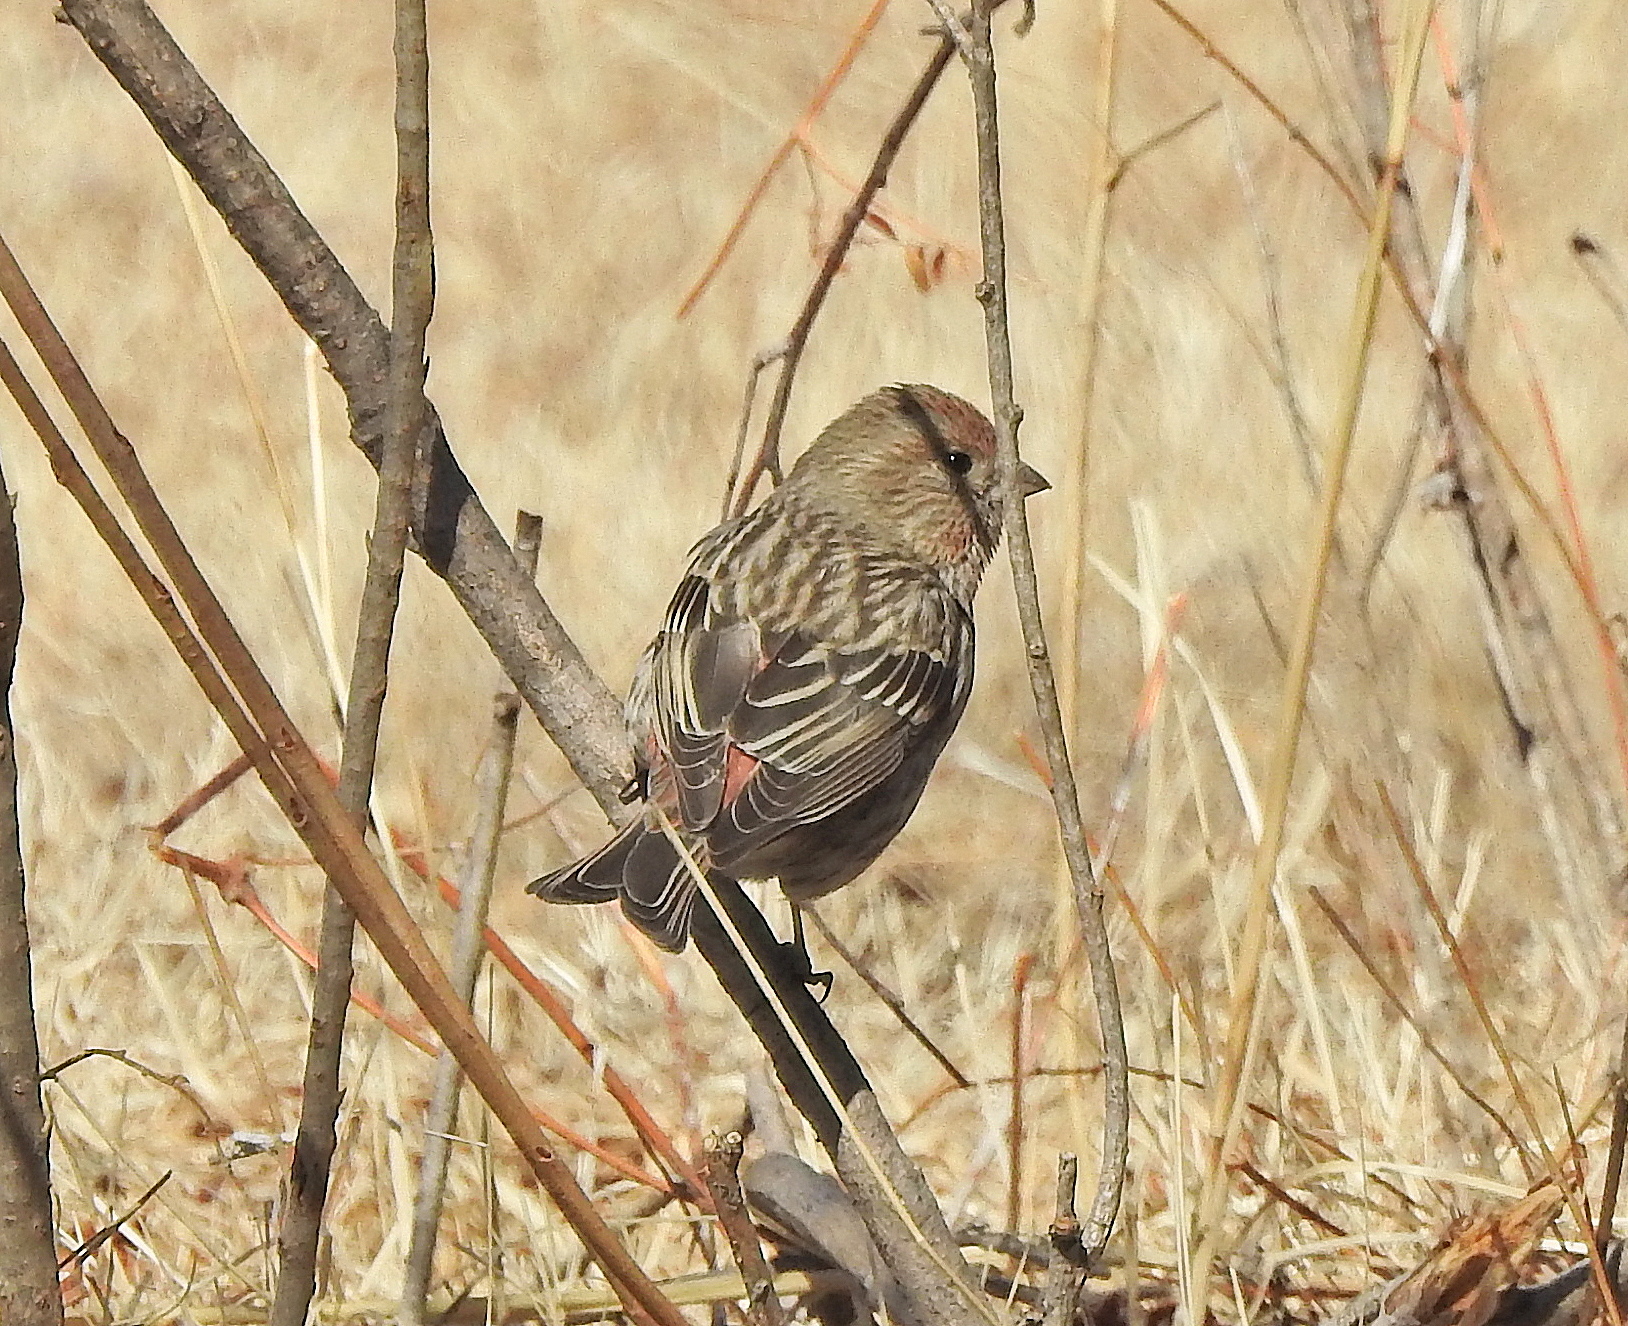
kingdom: Animalia
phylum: Chordata
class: Aves
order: Passeriformes
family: Fringillidae
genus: Carpodacus
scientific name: Carpodacus roseus
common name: Pallas's rosefinch
